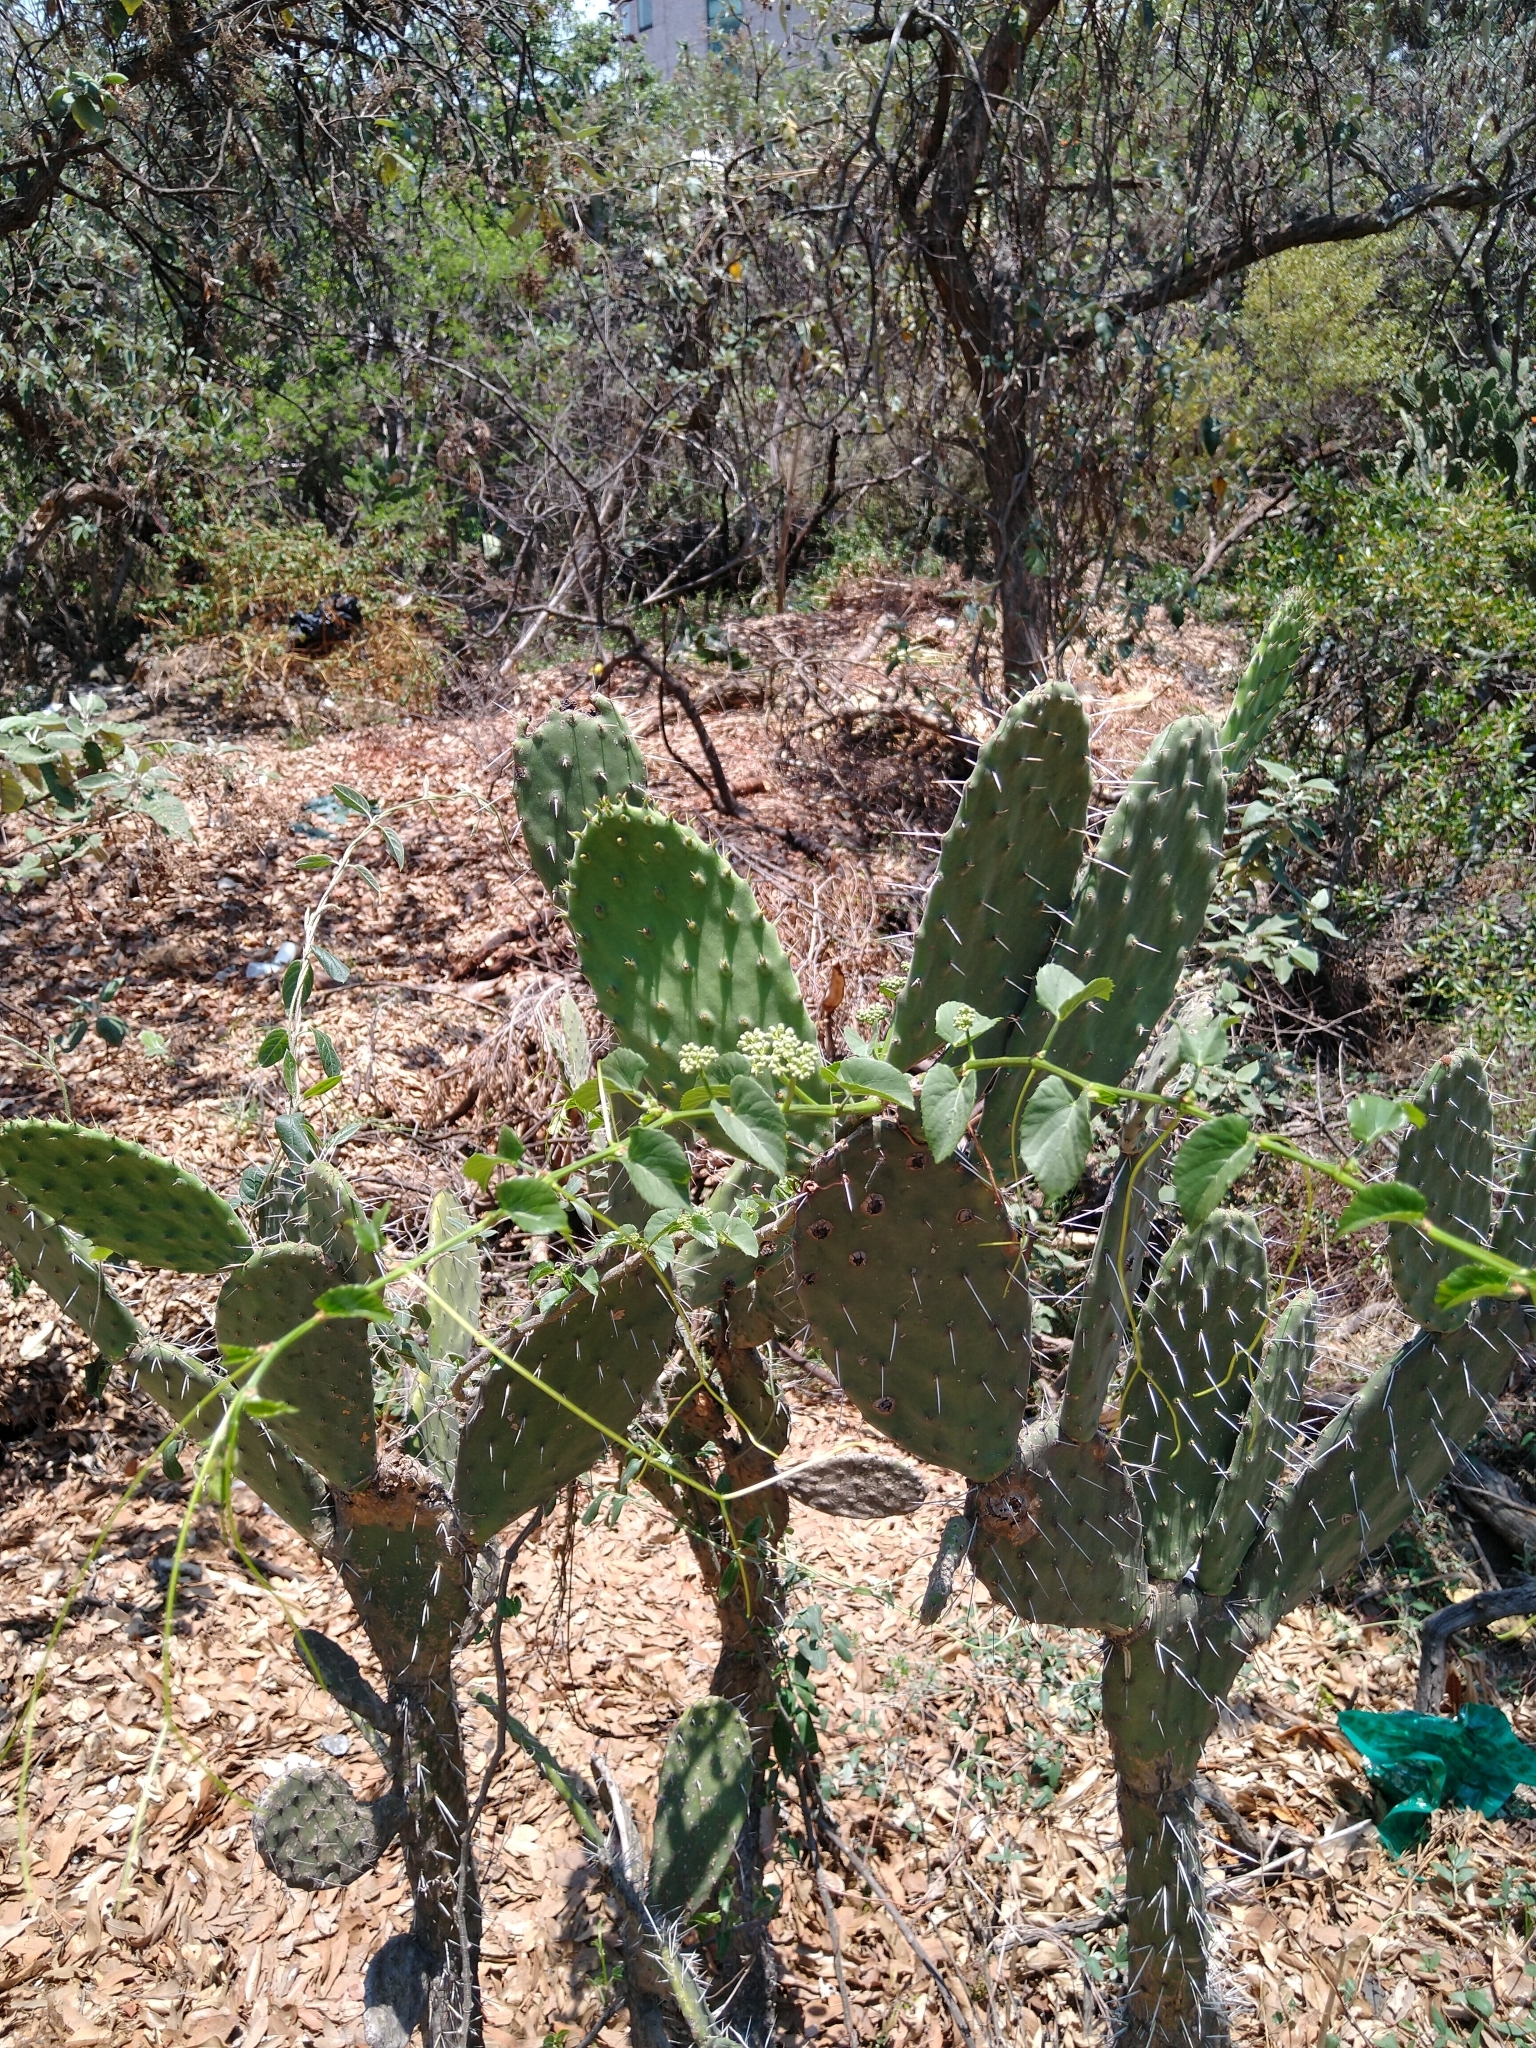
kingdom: Plantae
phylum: Tracheophyta
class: Magnoliopsida
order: Vitales
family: Vitaceae
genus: Cissus
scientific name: Cissus verticillata
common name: Princess vine
